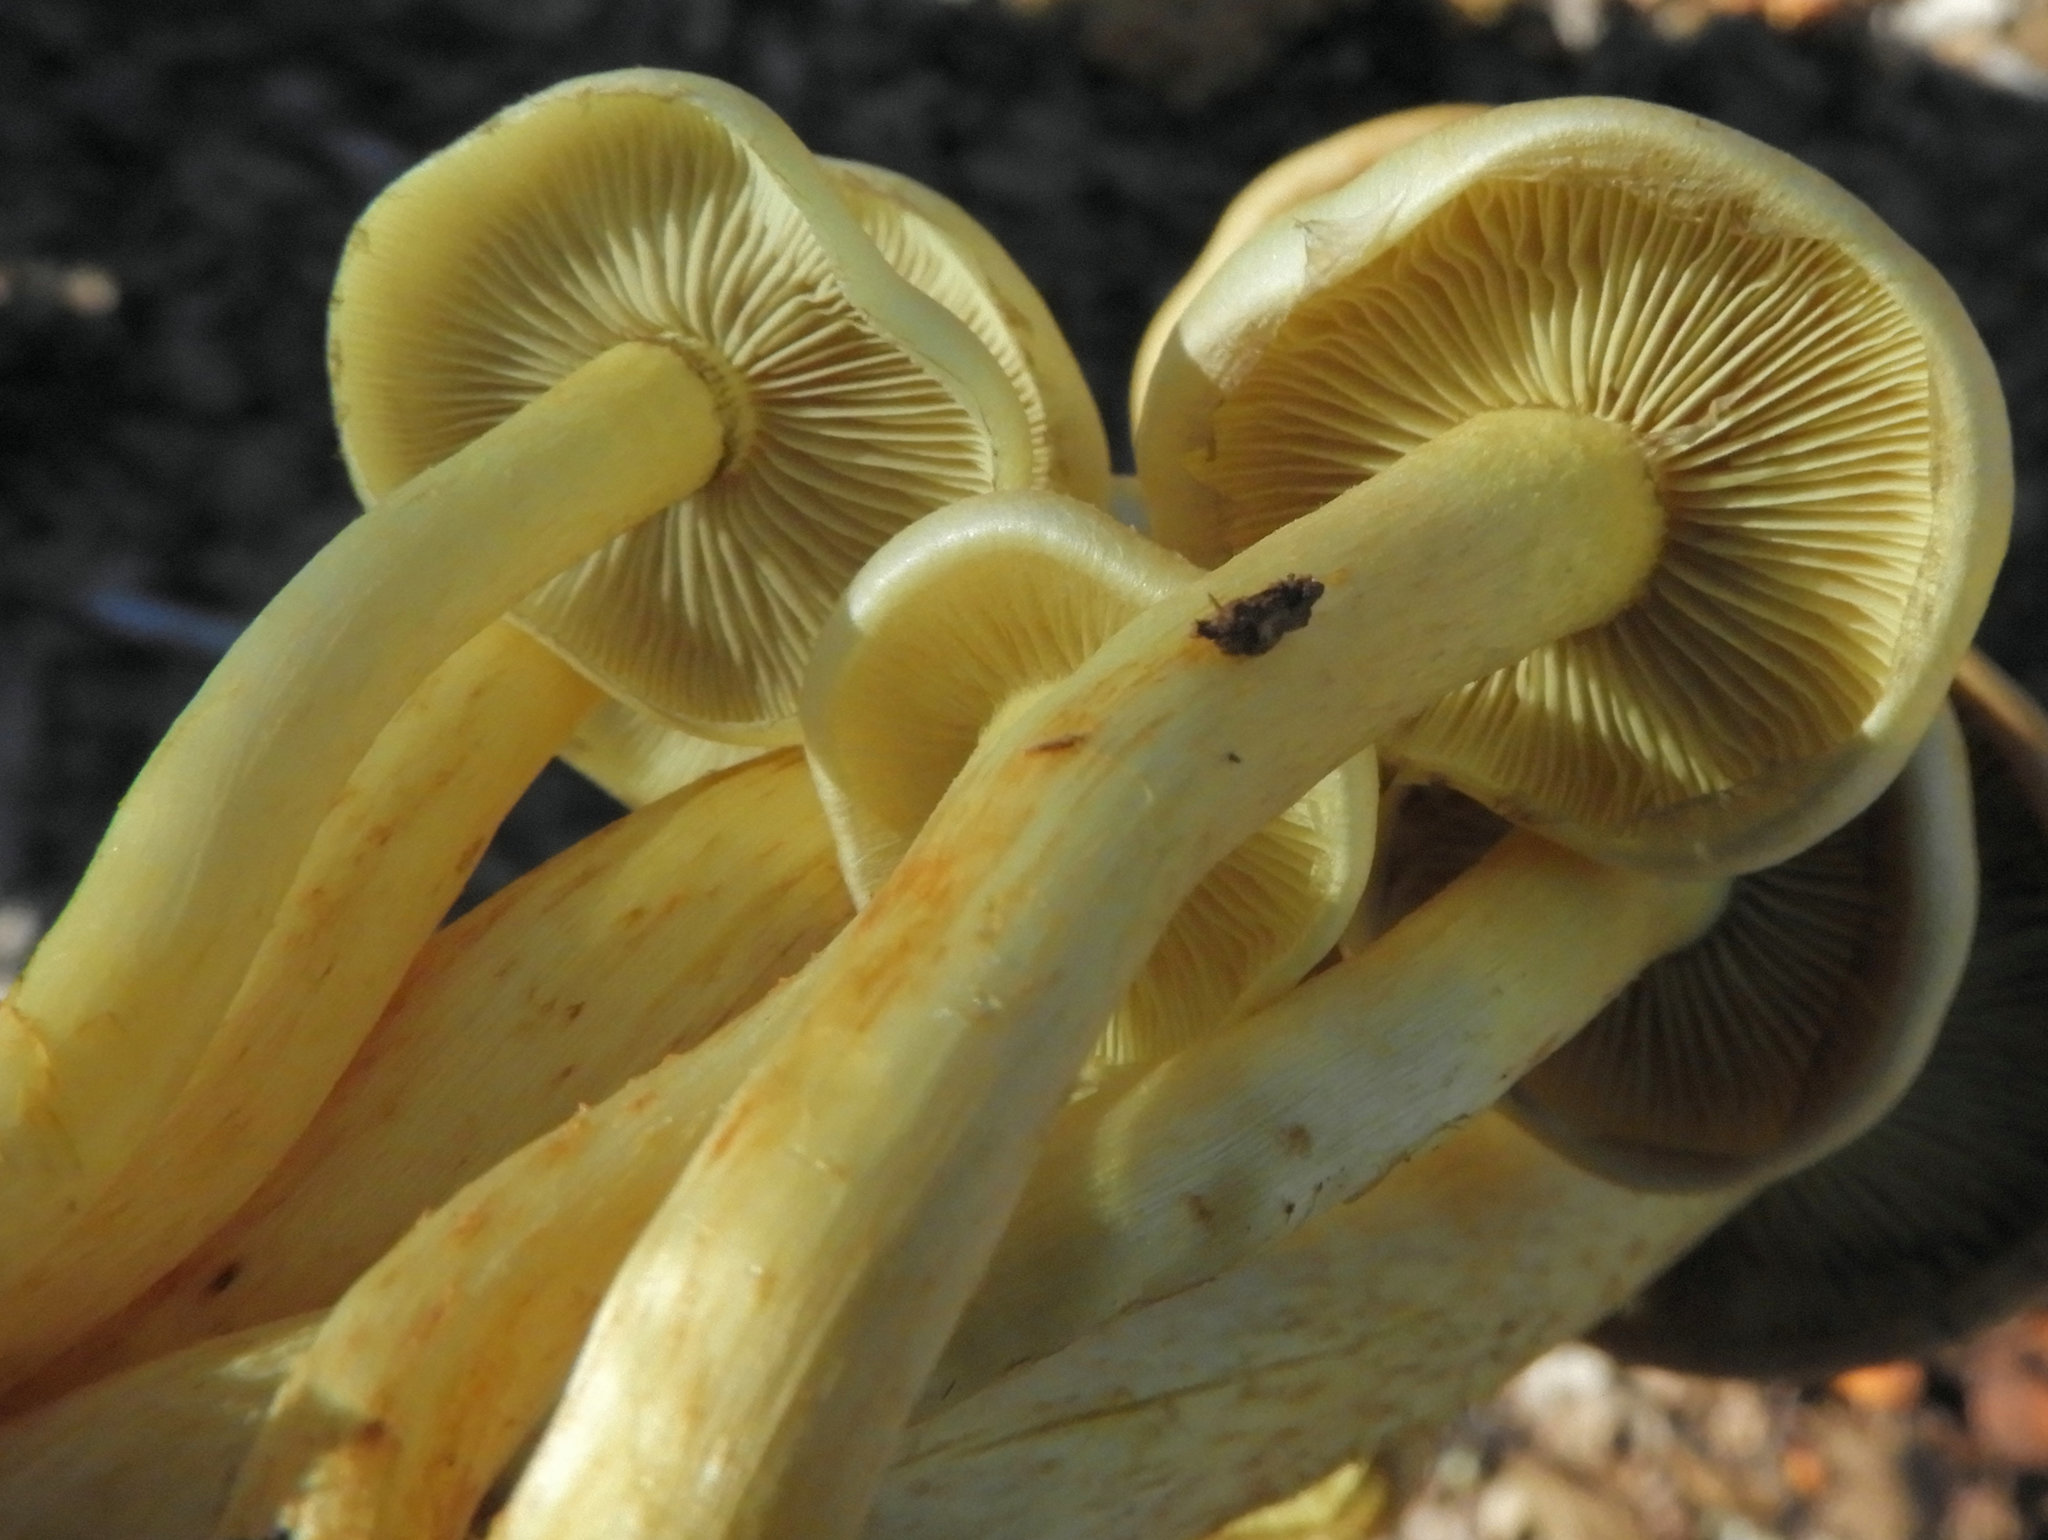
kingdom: Fungi
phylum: Basidiomycota
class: Agaricomycetes
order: Agaricales
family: Strophariaceae
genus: Hypholoma
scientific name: Hypholoma fasciculare
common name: Sulphur tuft
